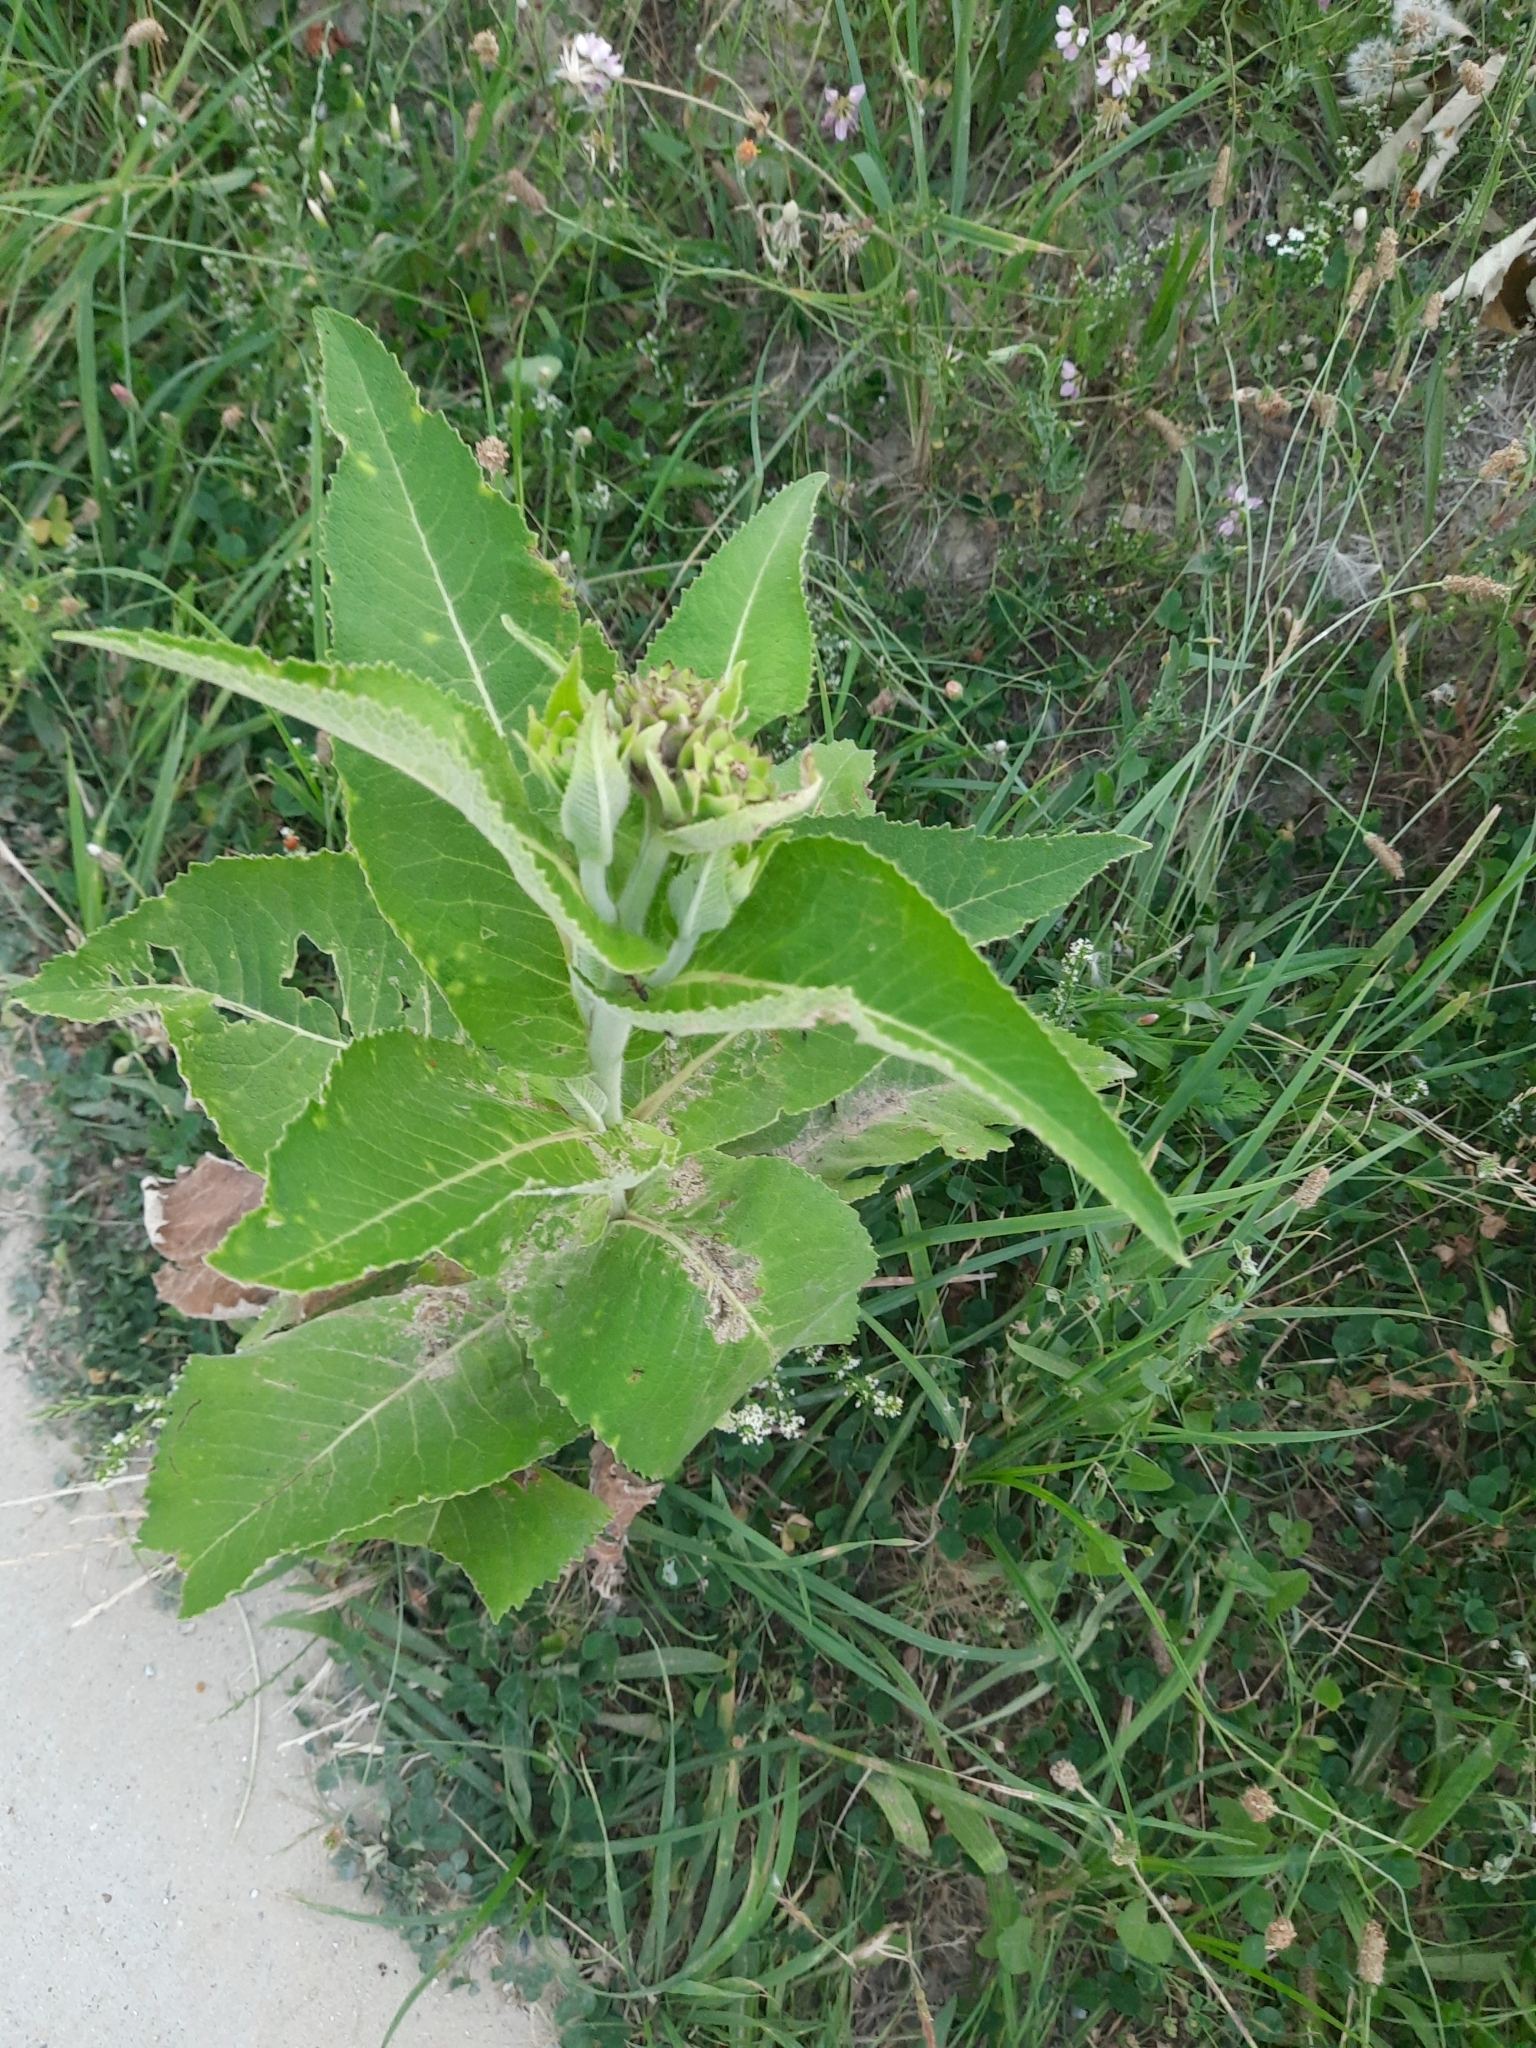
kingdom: Plantae
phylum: Tracheophyta
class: Magnoliopsida
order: Asterales
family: Asteraceae
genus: Inula
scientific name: Inula helenium
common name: Elecampane
